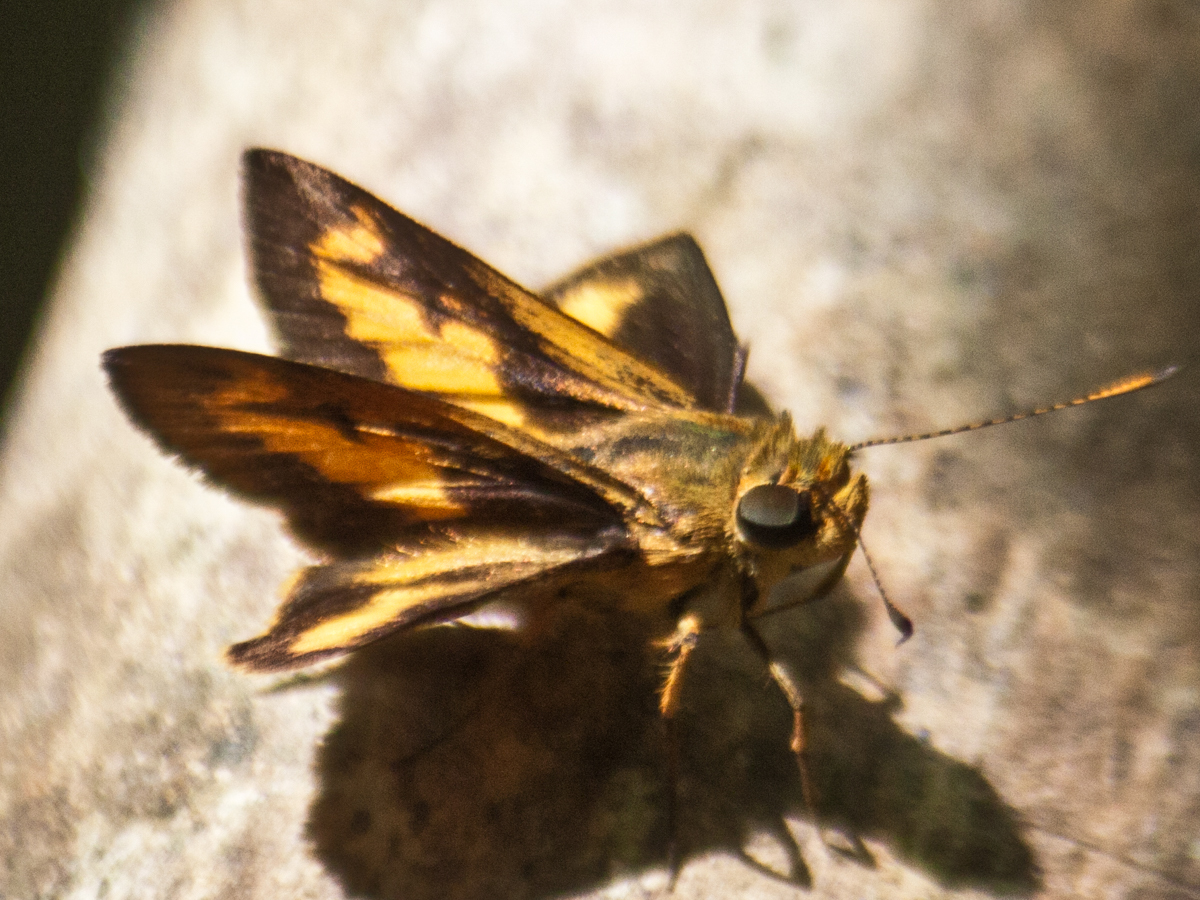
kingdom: Animalia
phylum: Arthropoda
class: Insecta
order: Lepidoptera
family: Hesperiidae
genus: Oriens
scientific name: Oriens gola
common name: Common dartlet
